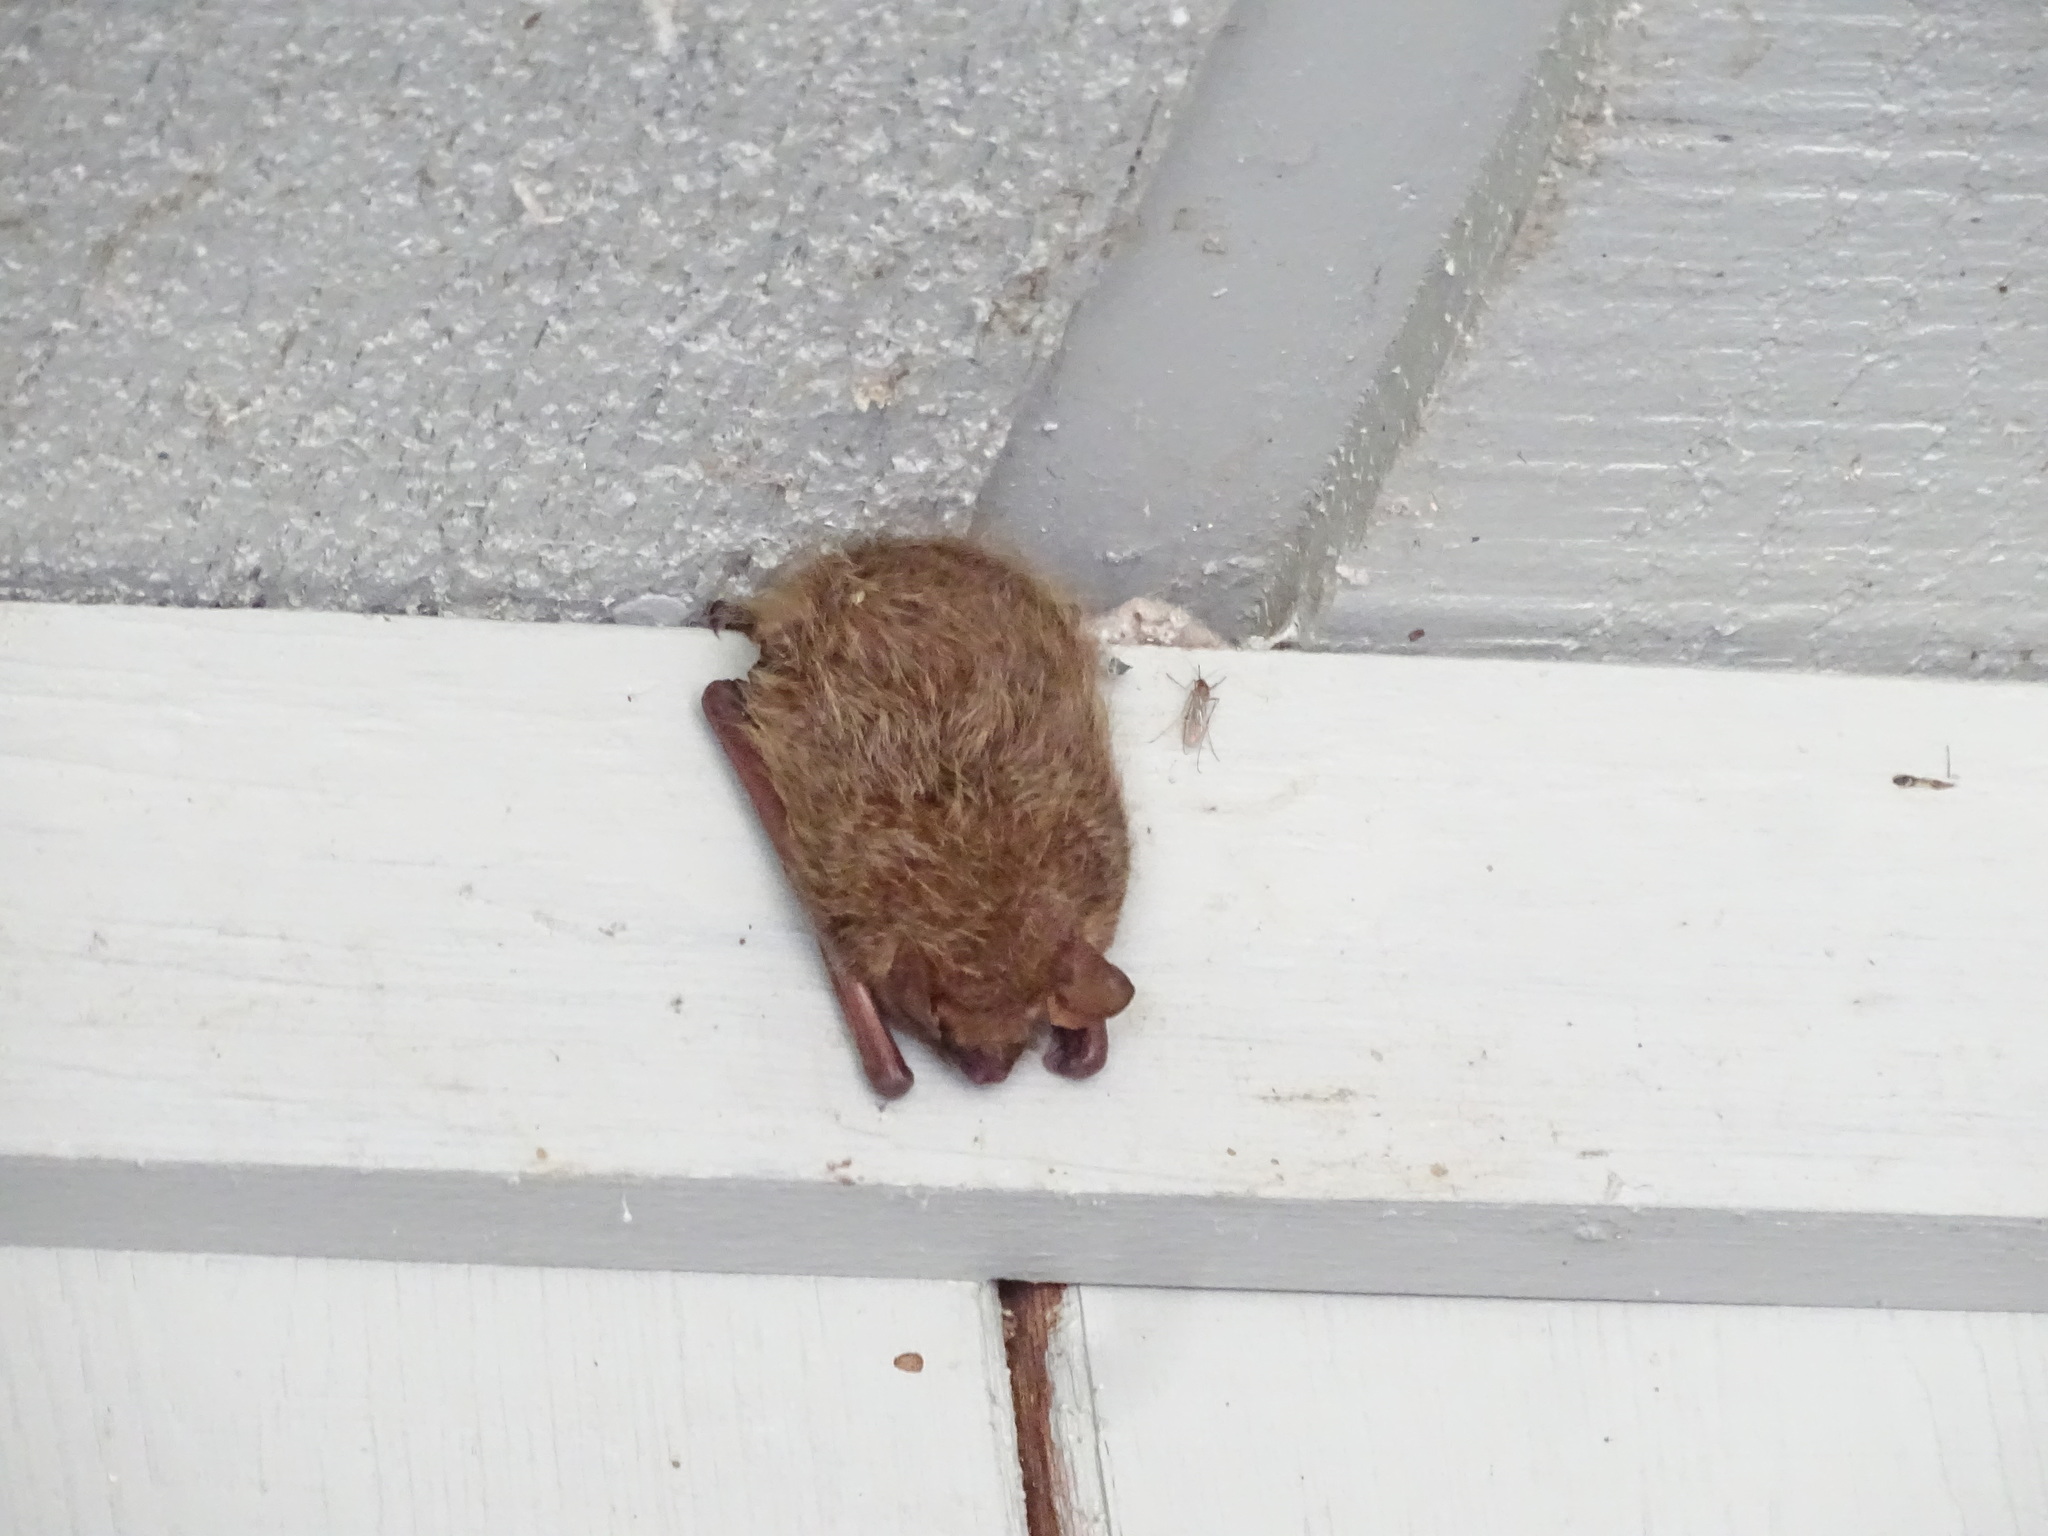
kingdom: Animalia
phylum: Chordata
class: Mammalia
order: Chiroptera
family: Vespertilionidae
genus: Perimyotis
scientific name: Perimyotis subflavus
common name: Eastern pipistrelle
